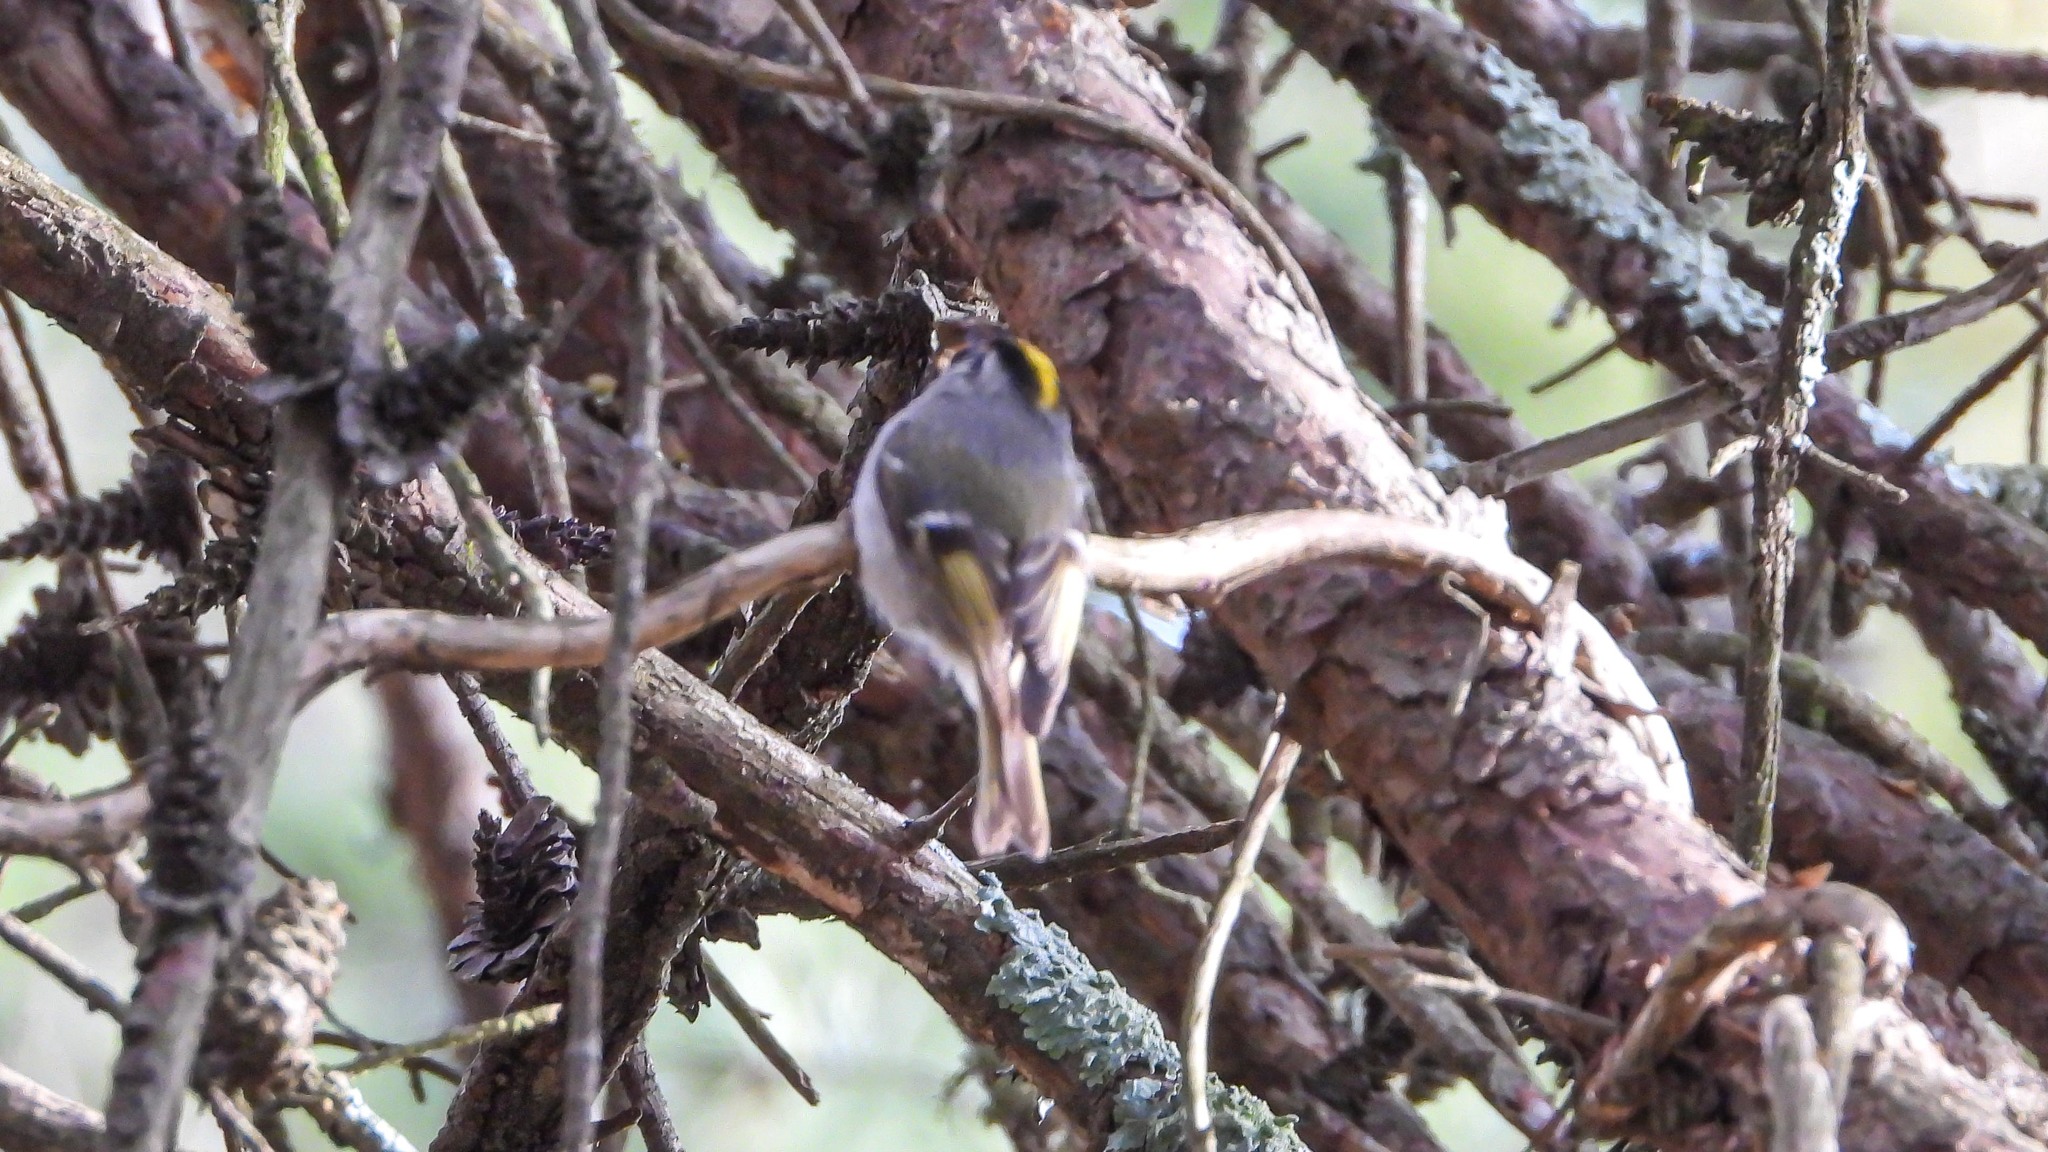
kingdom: Animalia
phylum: Chordata
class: Aves
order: Passeriformes
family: Regulidae
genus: Regulus
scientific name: Regulus satrapa
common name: Golden-crowned kinglet
